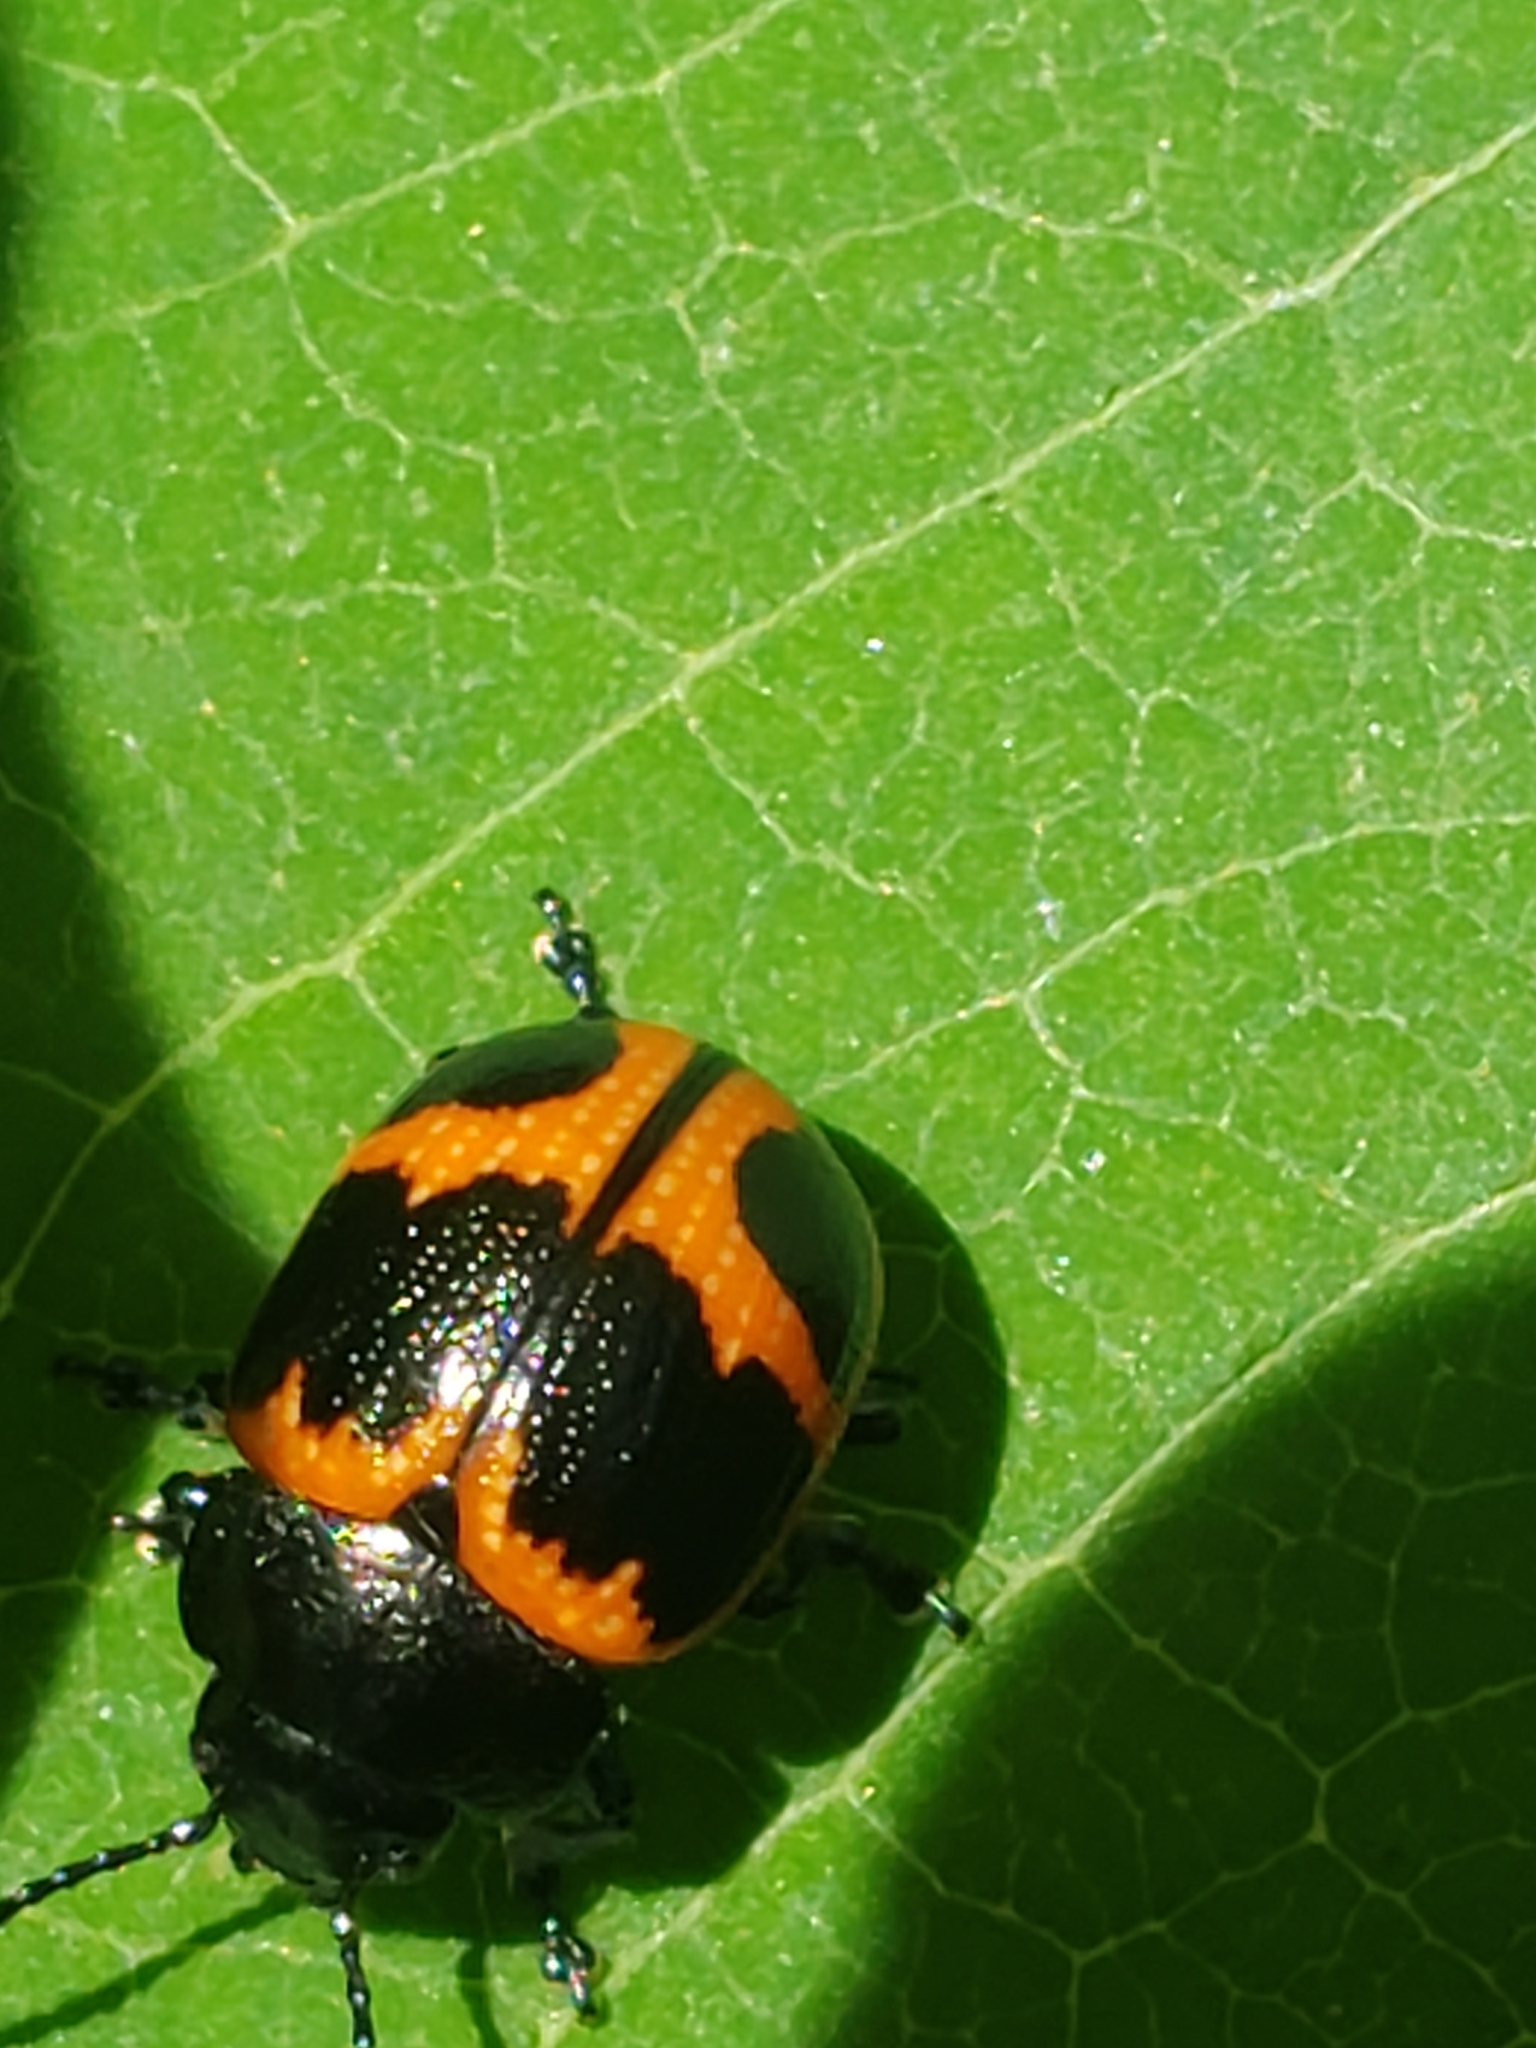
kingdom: Animalia
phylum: Arthropoda
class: Insecta
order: Coleoptera
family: Chrysomelidae
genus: Labidomera
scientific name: Labidomera clivicollis
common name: Swamp milkweed leaf beetle
